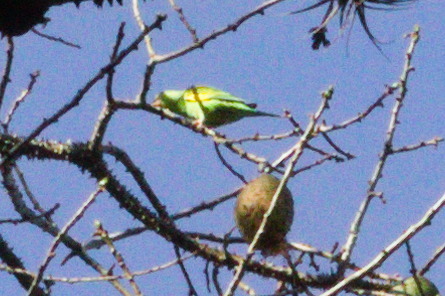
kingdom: Animalia
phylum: Chordata
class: Aves
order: Psittaciformes
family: Psittacidae
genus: Brotogeris
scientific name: Brotogeris chiriri
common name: Yellow-chevroned parakeet
